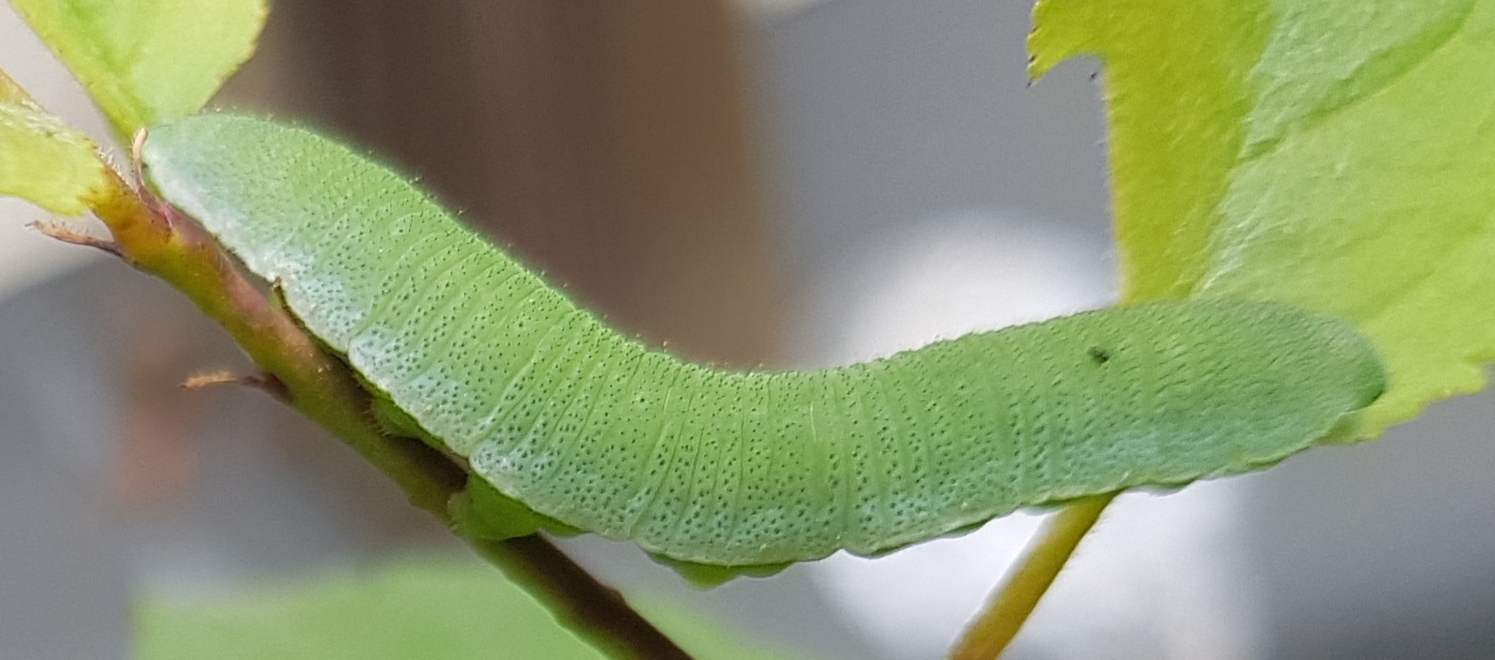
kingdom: Animalia
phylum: Arthropoda
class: Insecta
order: Lepidoptera
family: Pieridae
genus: Gonepteryx
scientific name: Gonepteryx rhamni
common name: Brimstone
